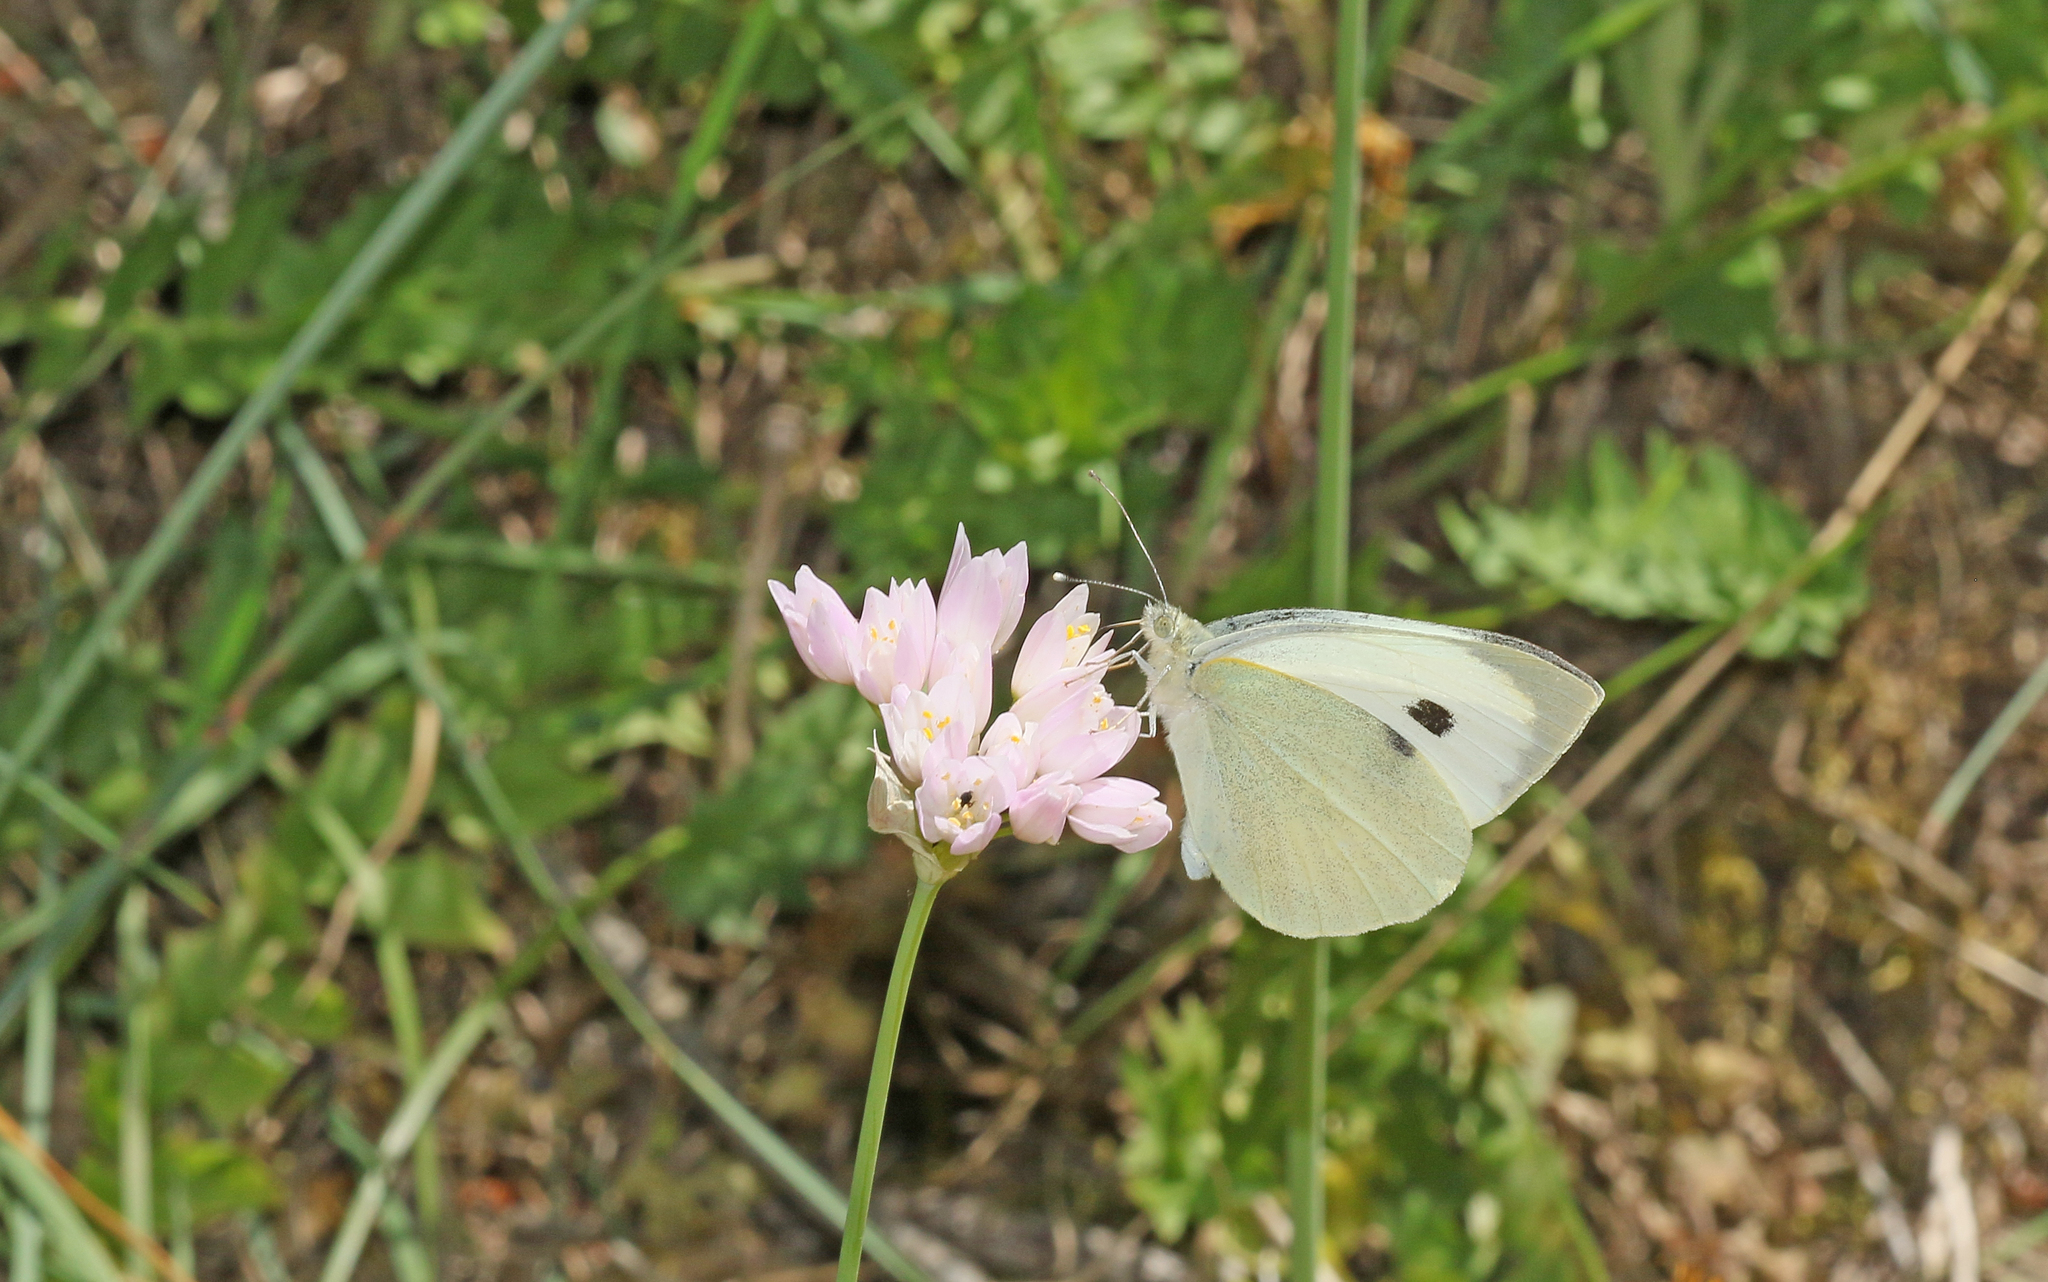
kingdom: Animalia
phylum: Arthropoda
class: Insecta
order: Lepidoptera
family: Pieridae
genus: Pieris
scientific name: Pieris brassicae
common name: Large white
